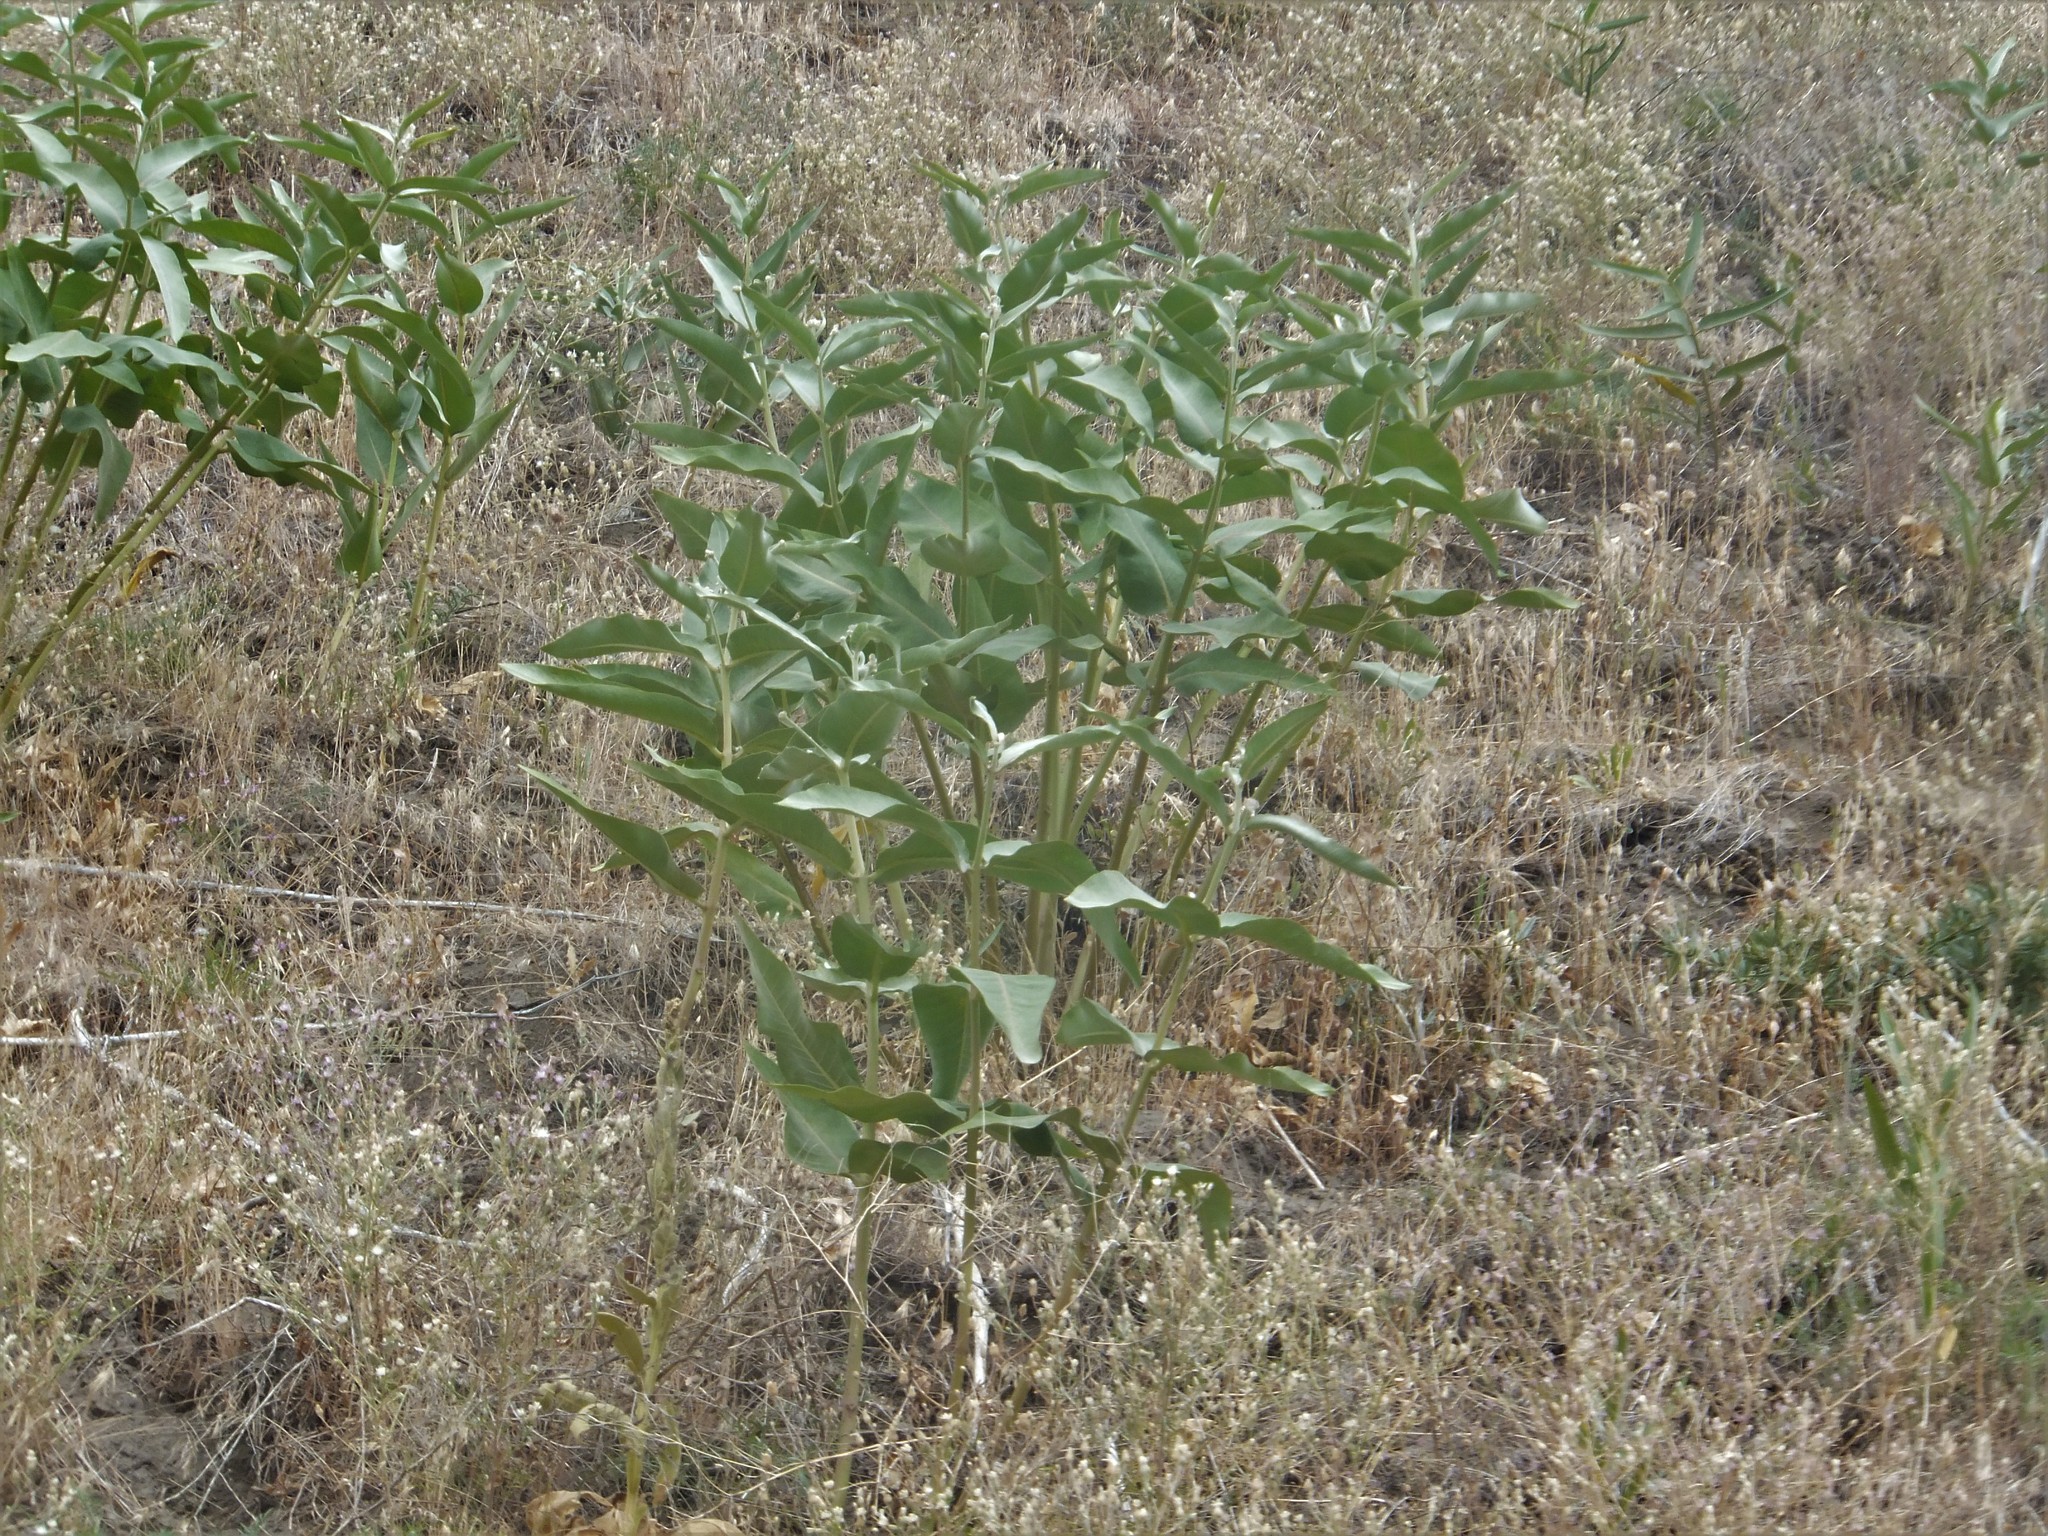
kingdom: Plantae
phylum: Tracheophyta
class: Magnoliopsida
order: Gentianales
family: Apocynaceae
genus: Asclepias
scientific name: Asclepias speciosa
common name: Showy milkweed
